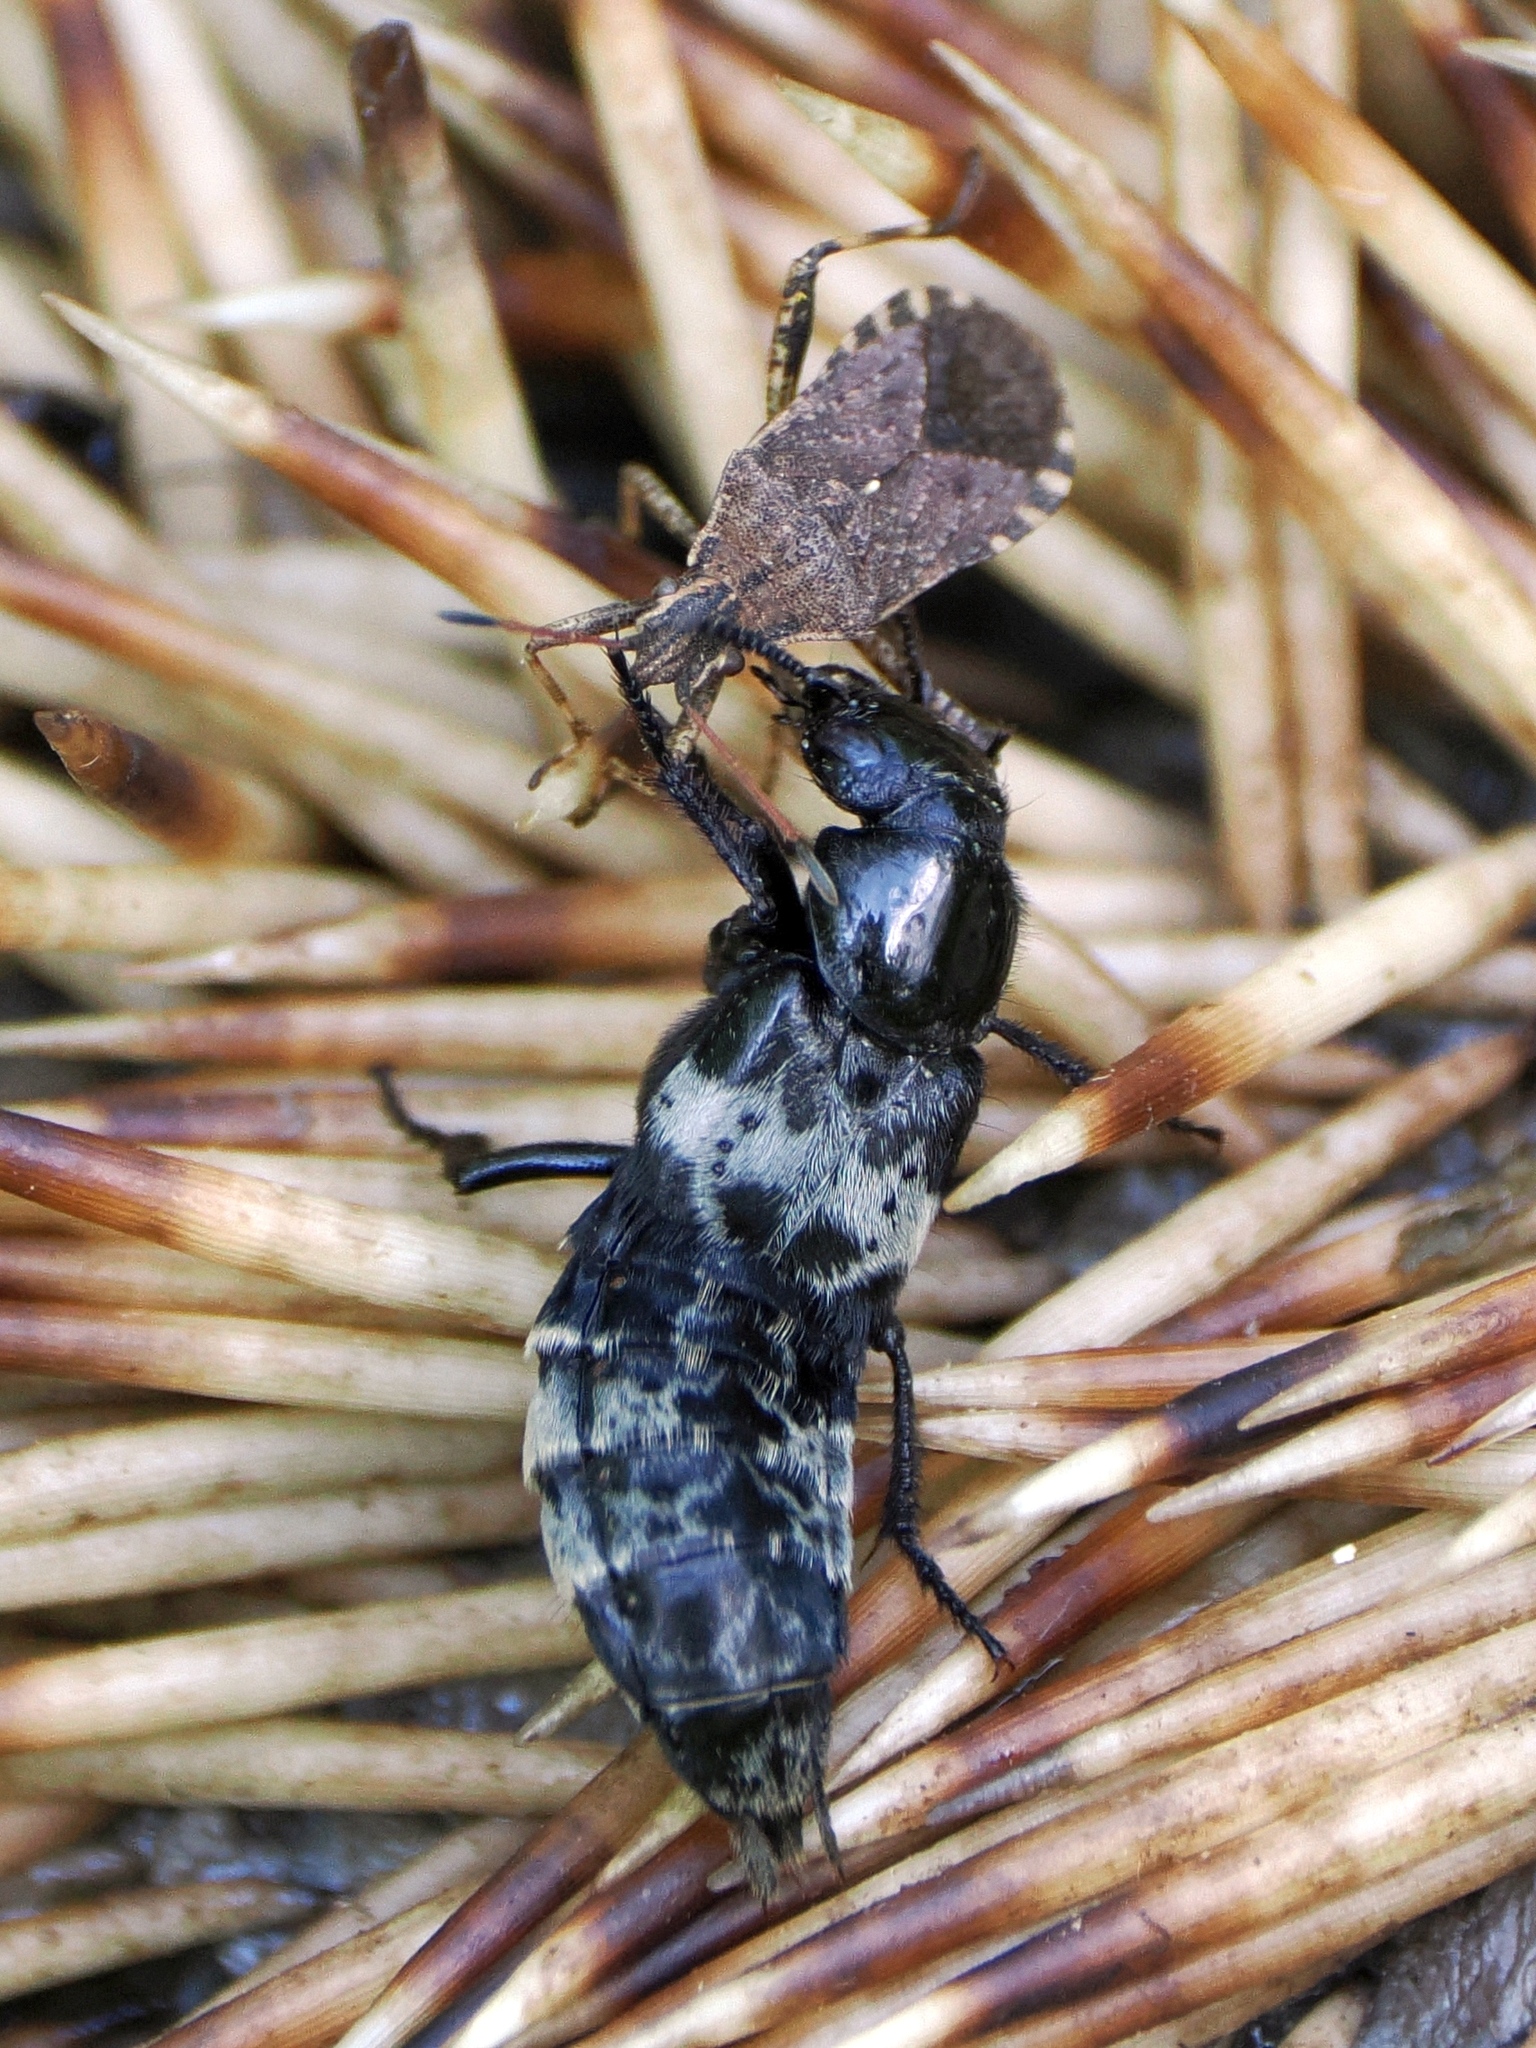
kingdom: Animalia
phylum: Arthropoda
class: Insecta
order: Hemiptera
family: Coreidae
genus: Ceraleptus
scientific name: Ceraleptus gracilicornis
